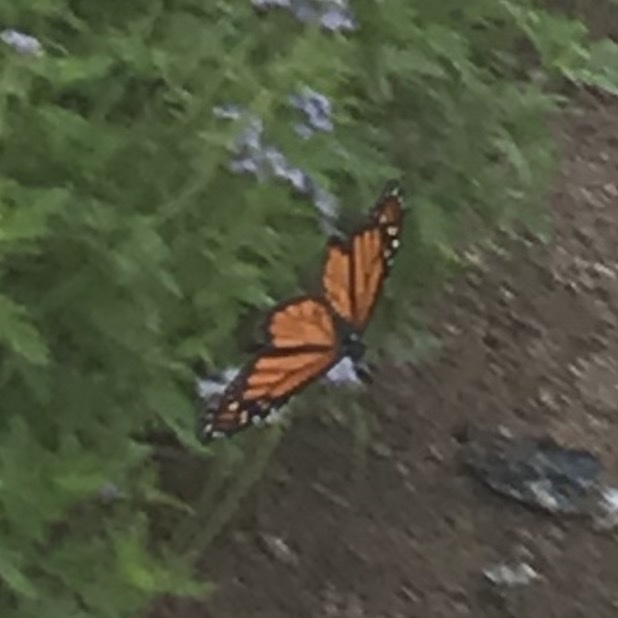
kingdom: Animalia
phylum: Arthropoda
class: Insecta
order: Lepidoptera
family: Nymphalidae
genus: Danaus
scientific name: Danaus plexippus
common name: Monarch
